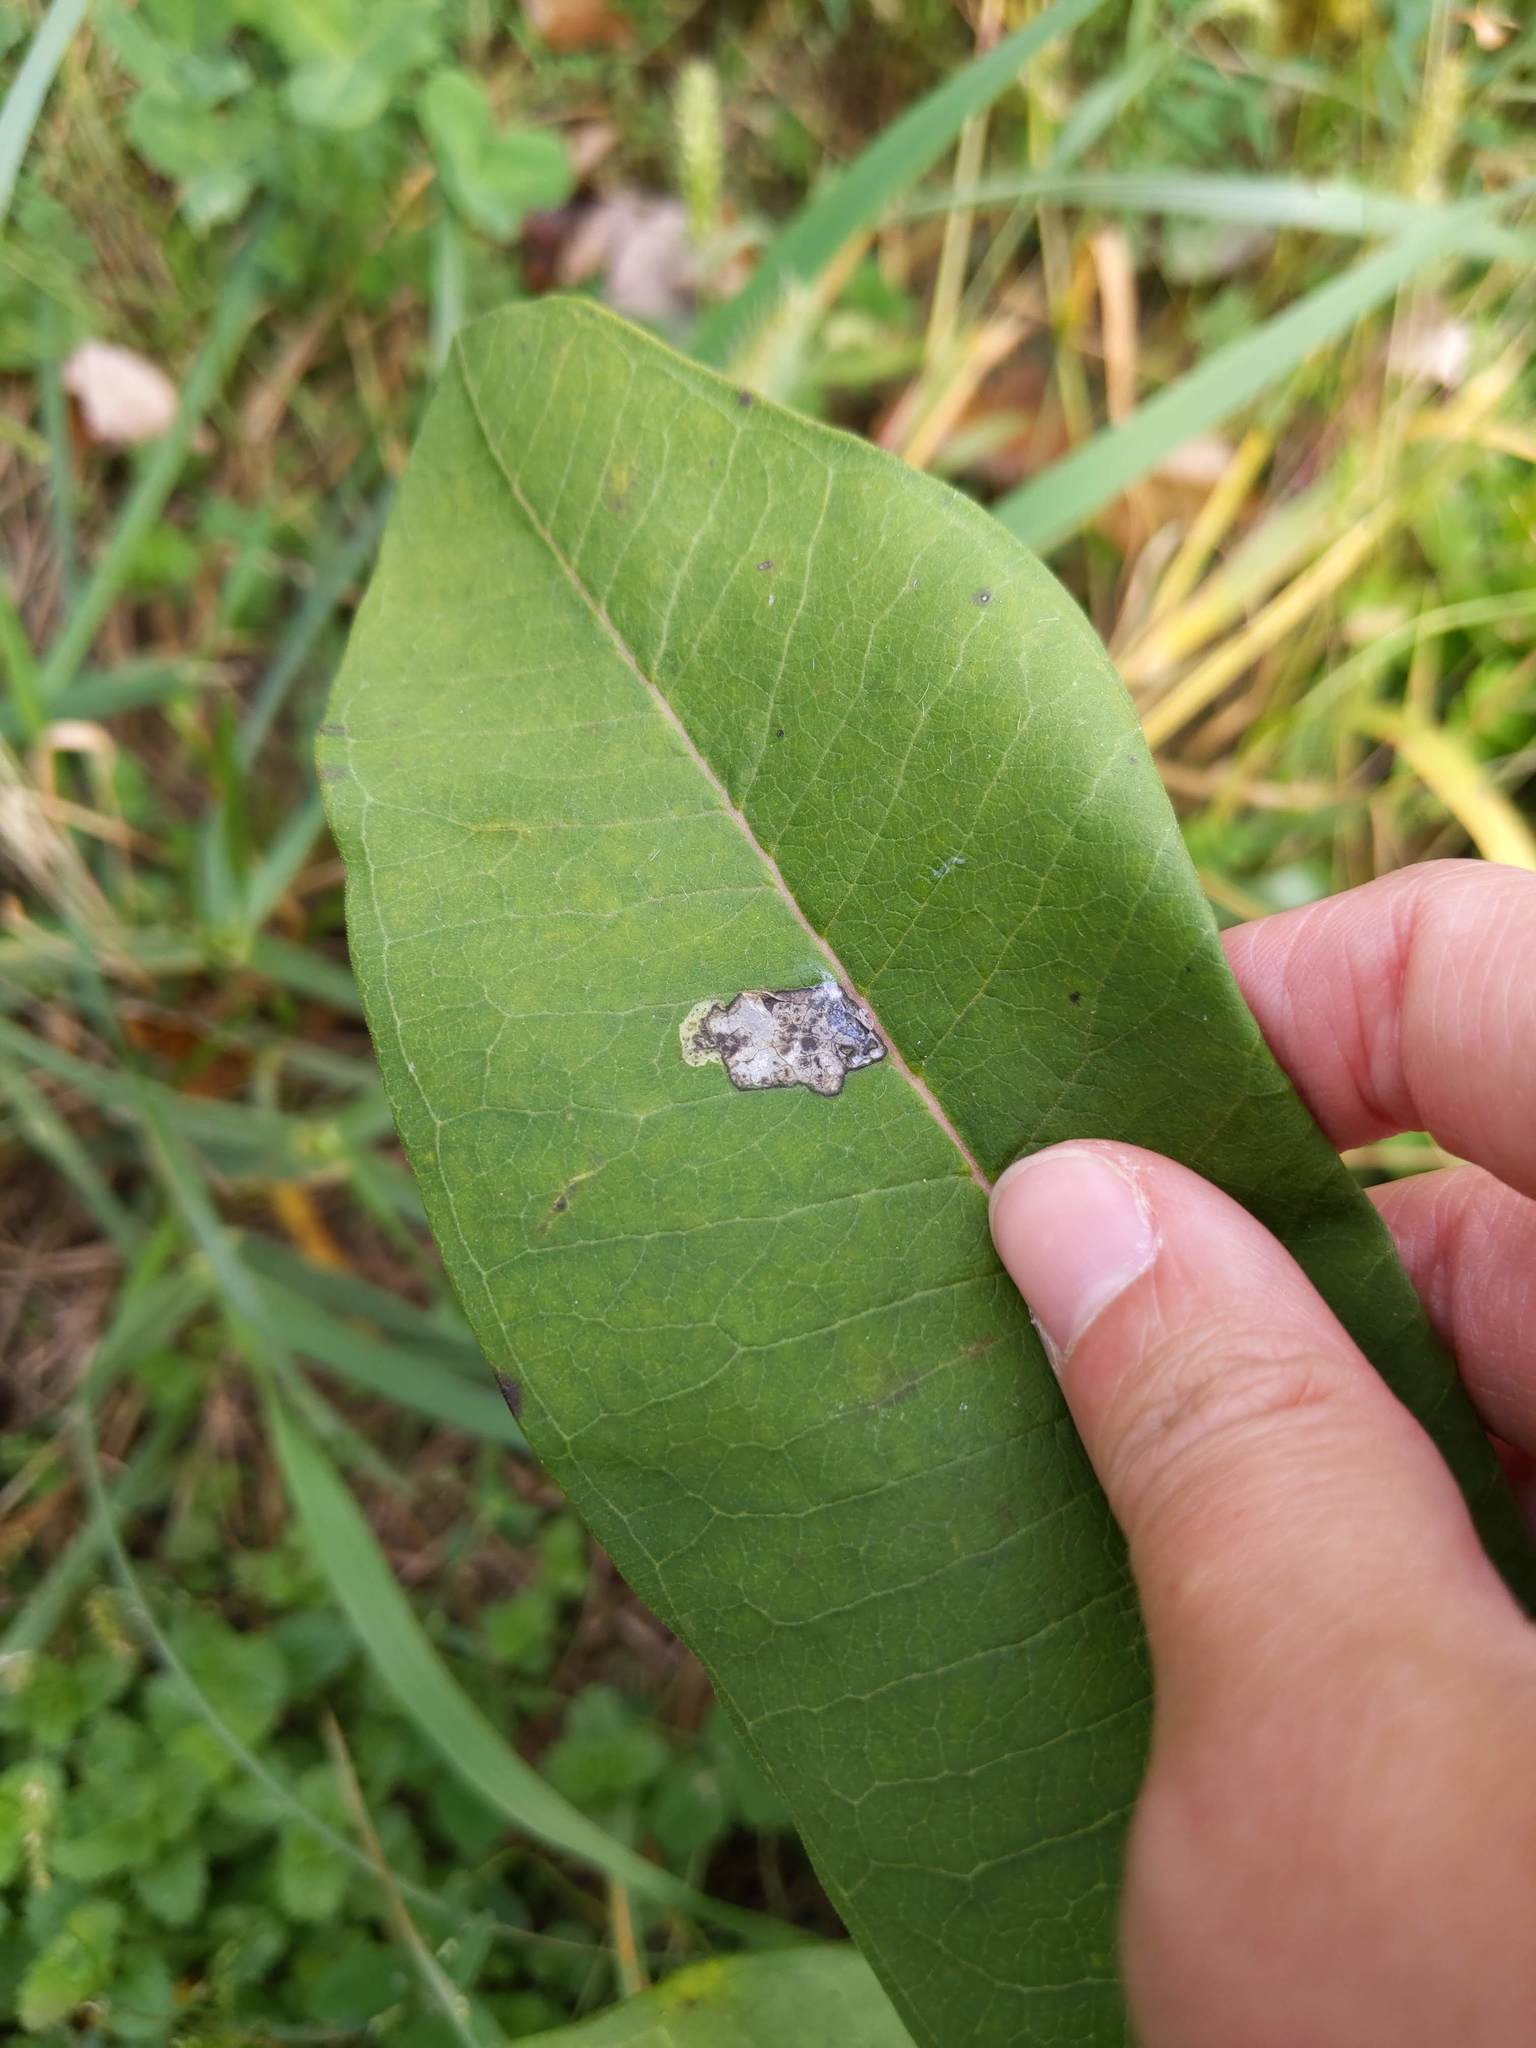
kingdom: Animalia
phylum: Arthropoda
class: Insecta
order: Diptera
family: Agromyzidae
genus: Liriomyza
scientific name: Liriomyza asclepiadis
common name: Milkweed leaf-miner fly
